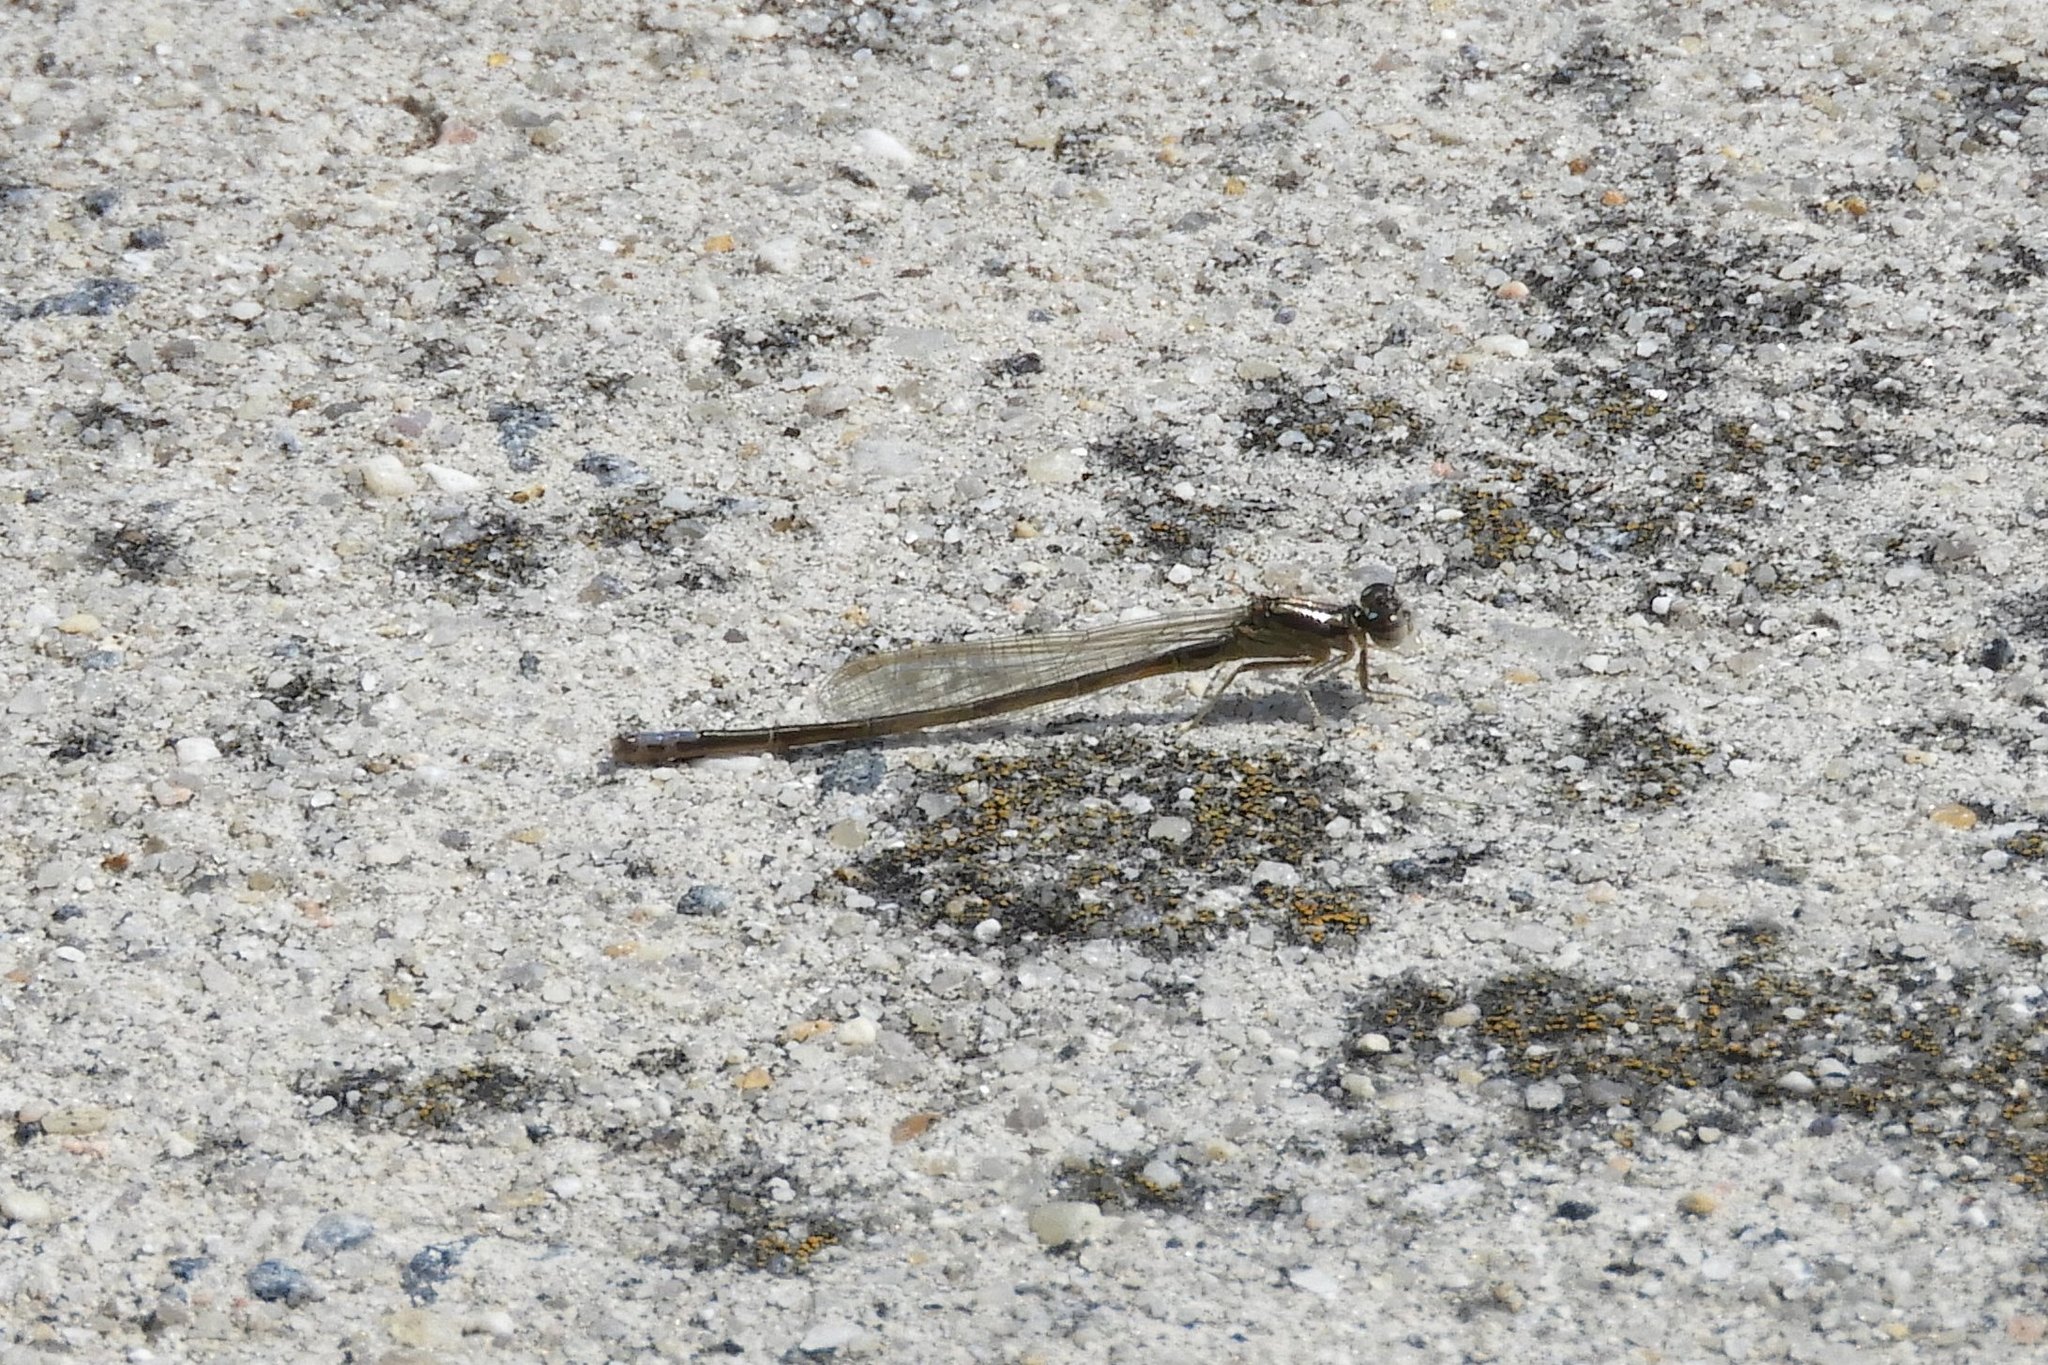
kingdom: Animalia
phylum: Arthropoda
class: Insecta
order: Odonata
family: Coenagrionidae
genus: Ischnura
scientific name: Ischnura verticalis
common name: Eastern forktail
